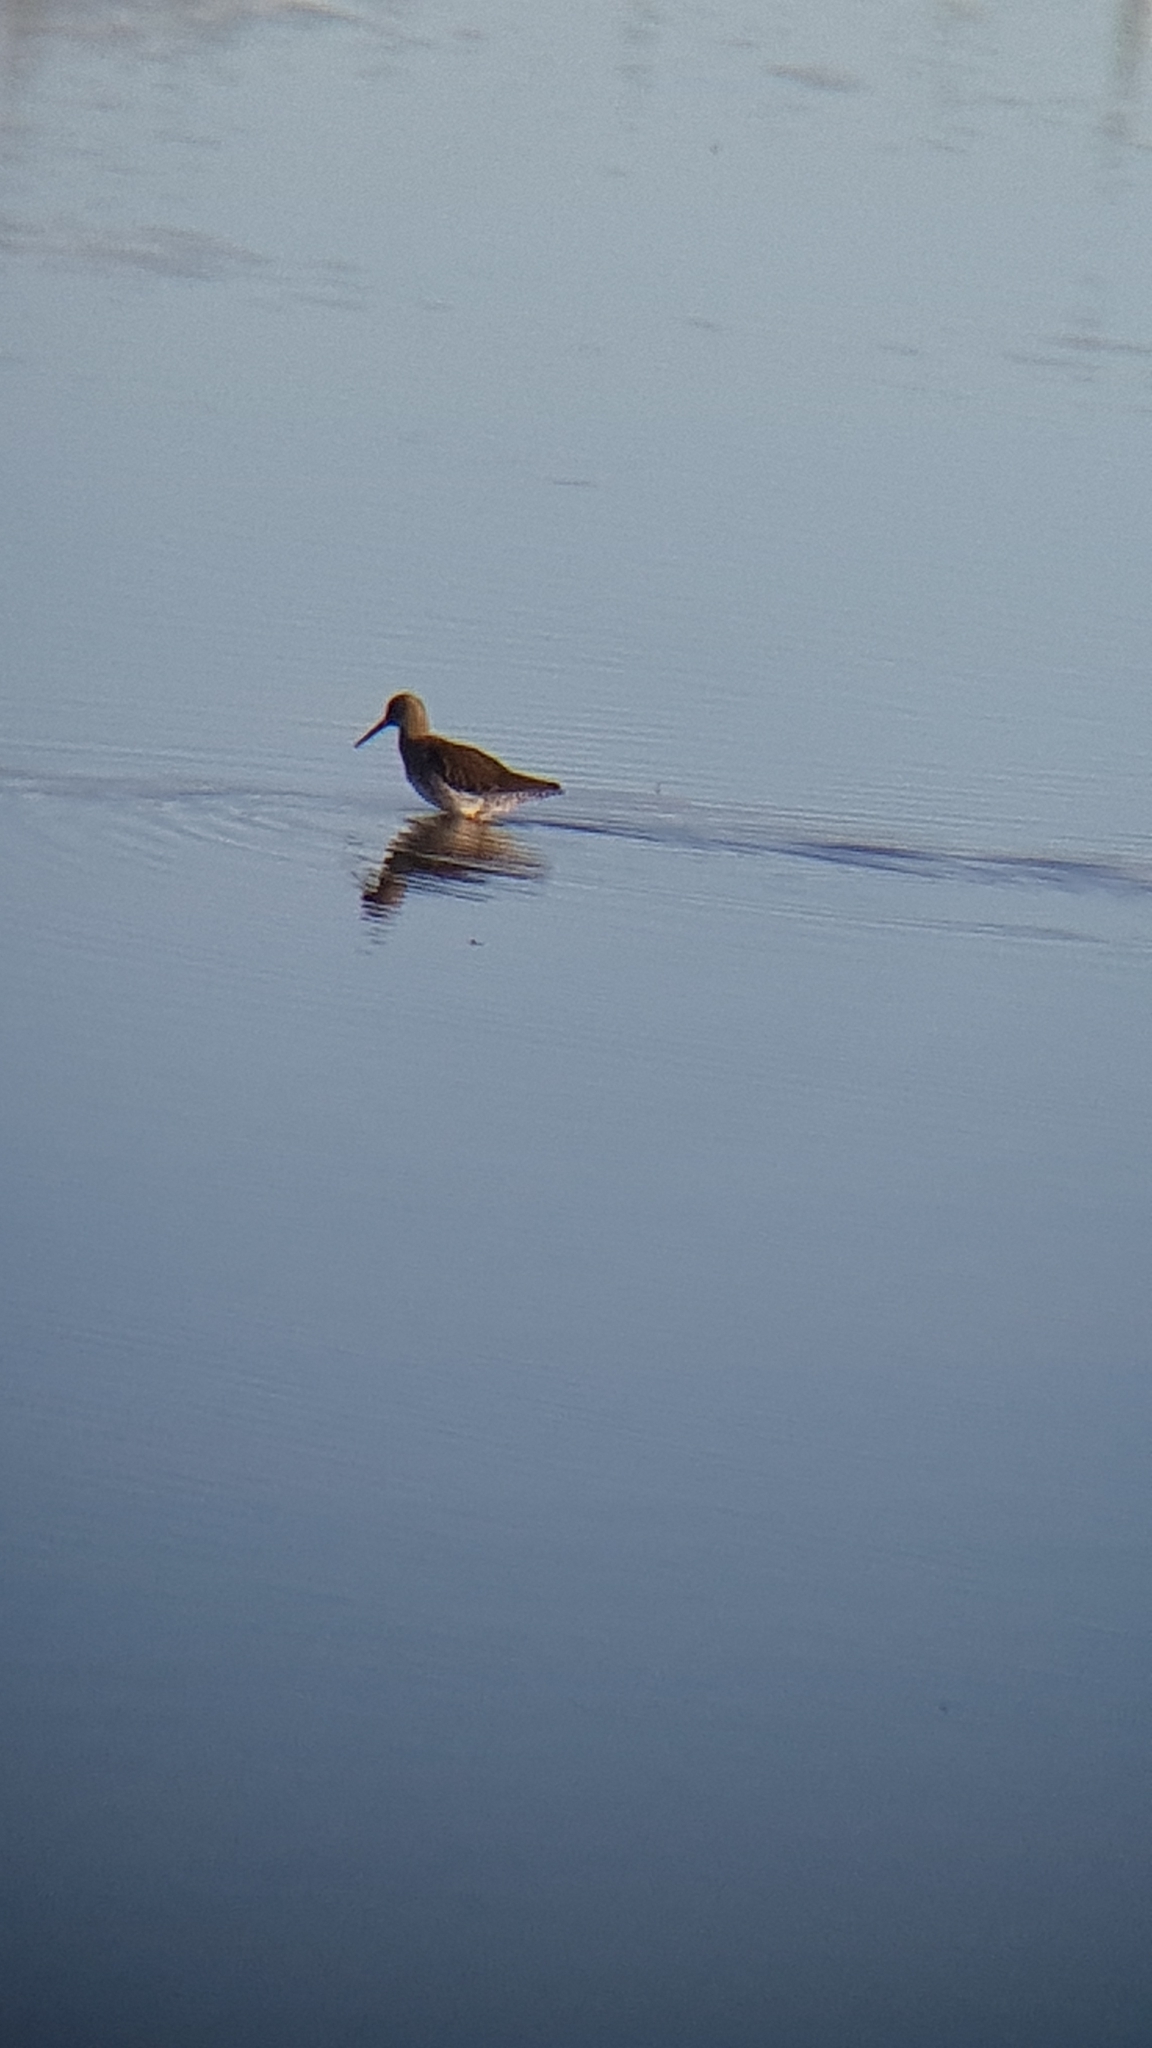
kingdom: Animalia
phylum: Chordata
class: Aves
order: Charadriiformes
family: Scolopacidae
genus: Tringa
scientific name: Tringa totanus
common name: Common redshank
